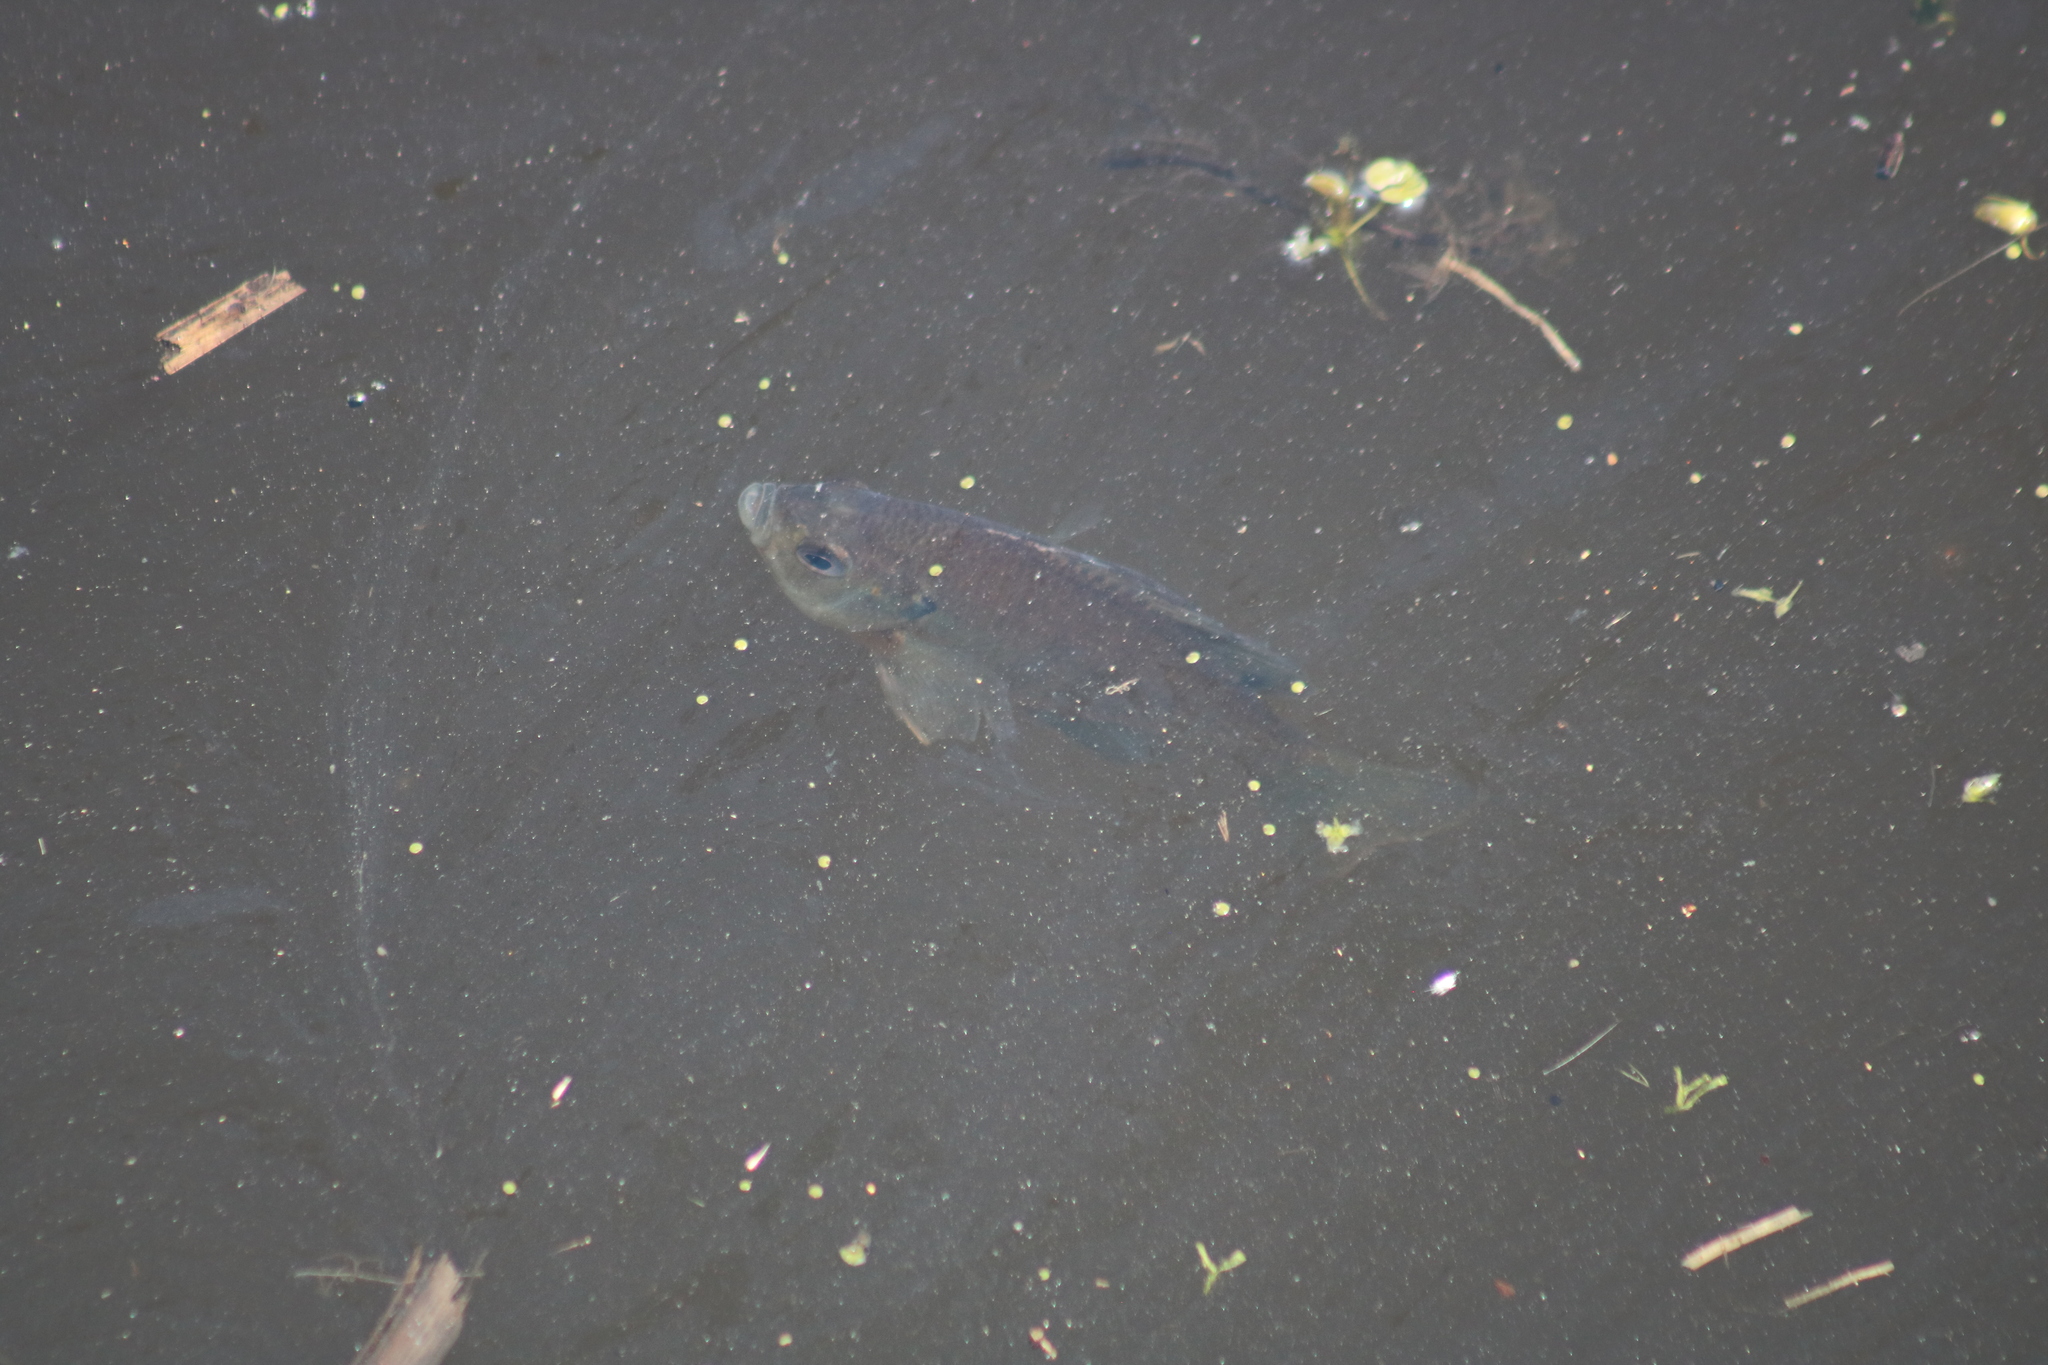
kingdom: Animalia
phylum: Chordata
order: Perciformes
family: Centrarchidae
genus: Lepomis
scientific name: Lepomis macrochirus
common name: Bluegill
